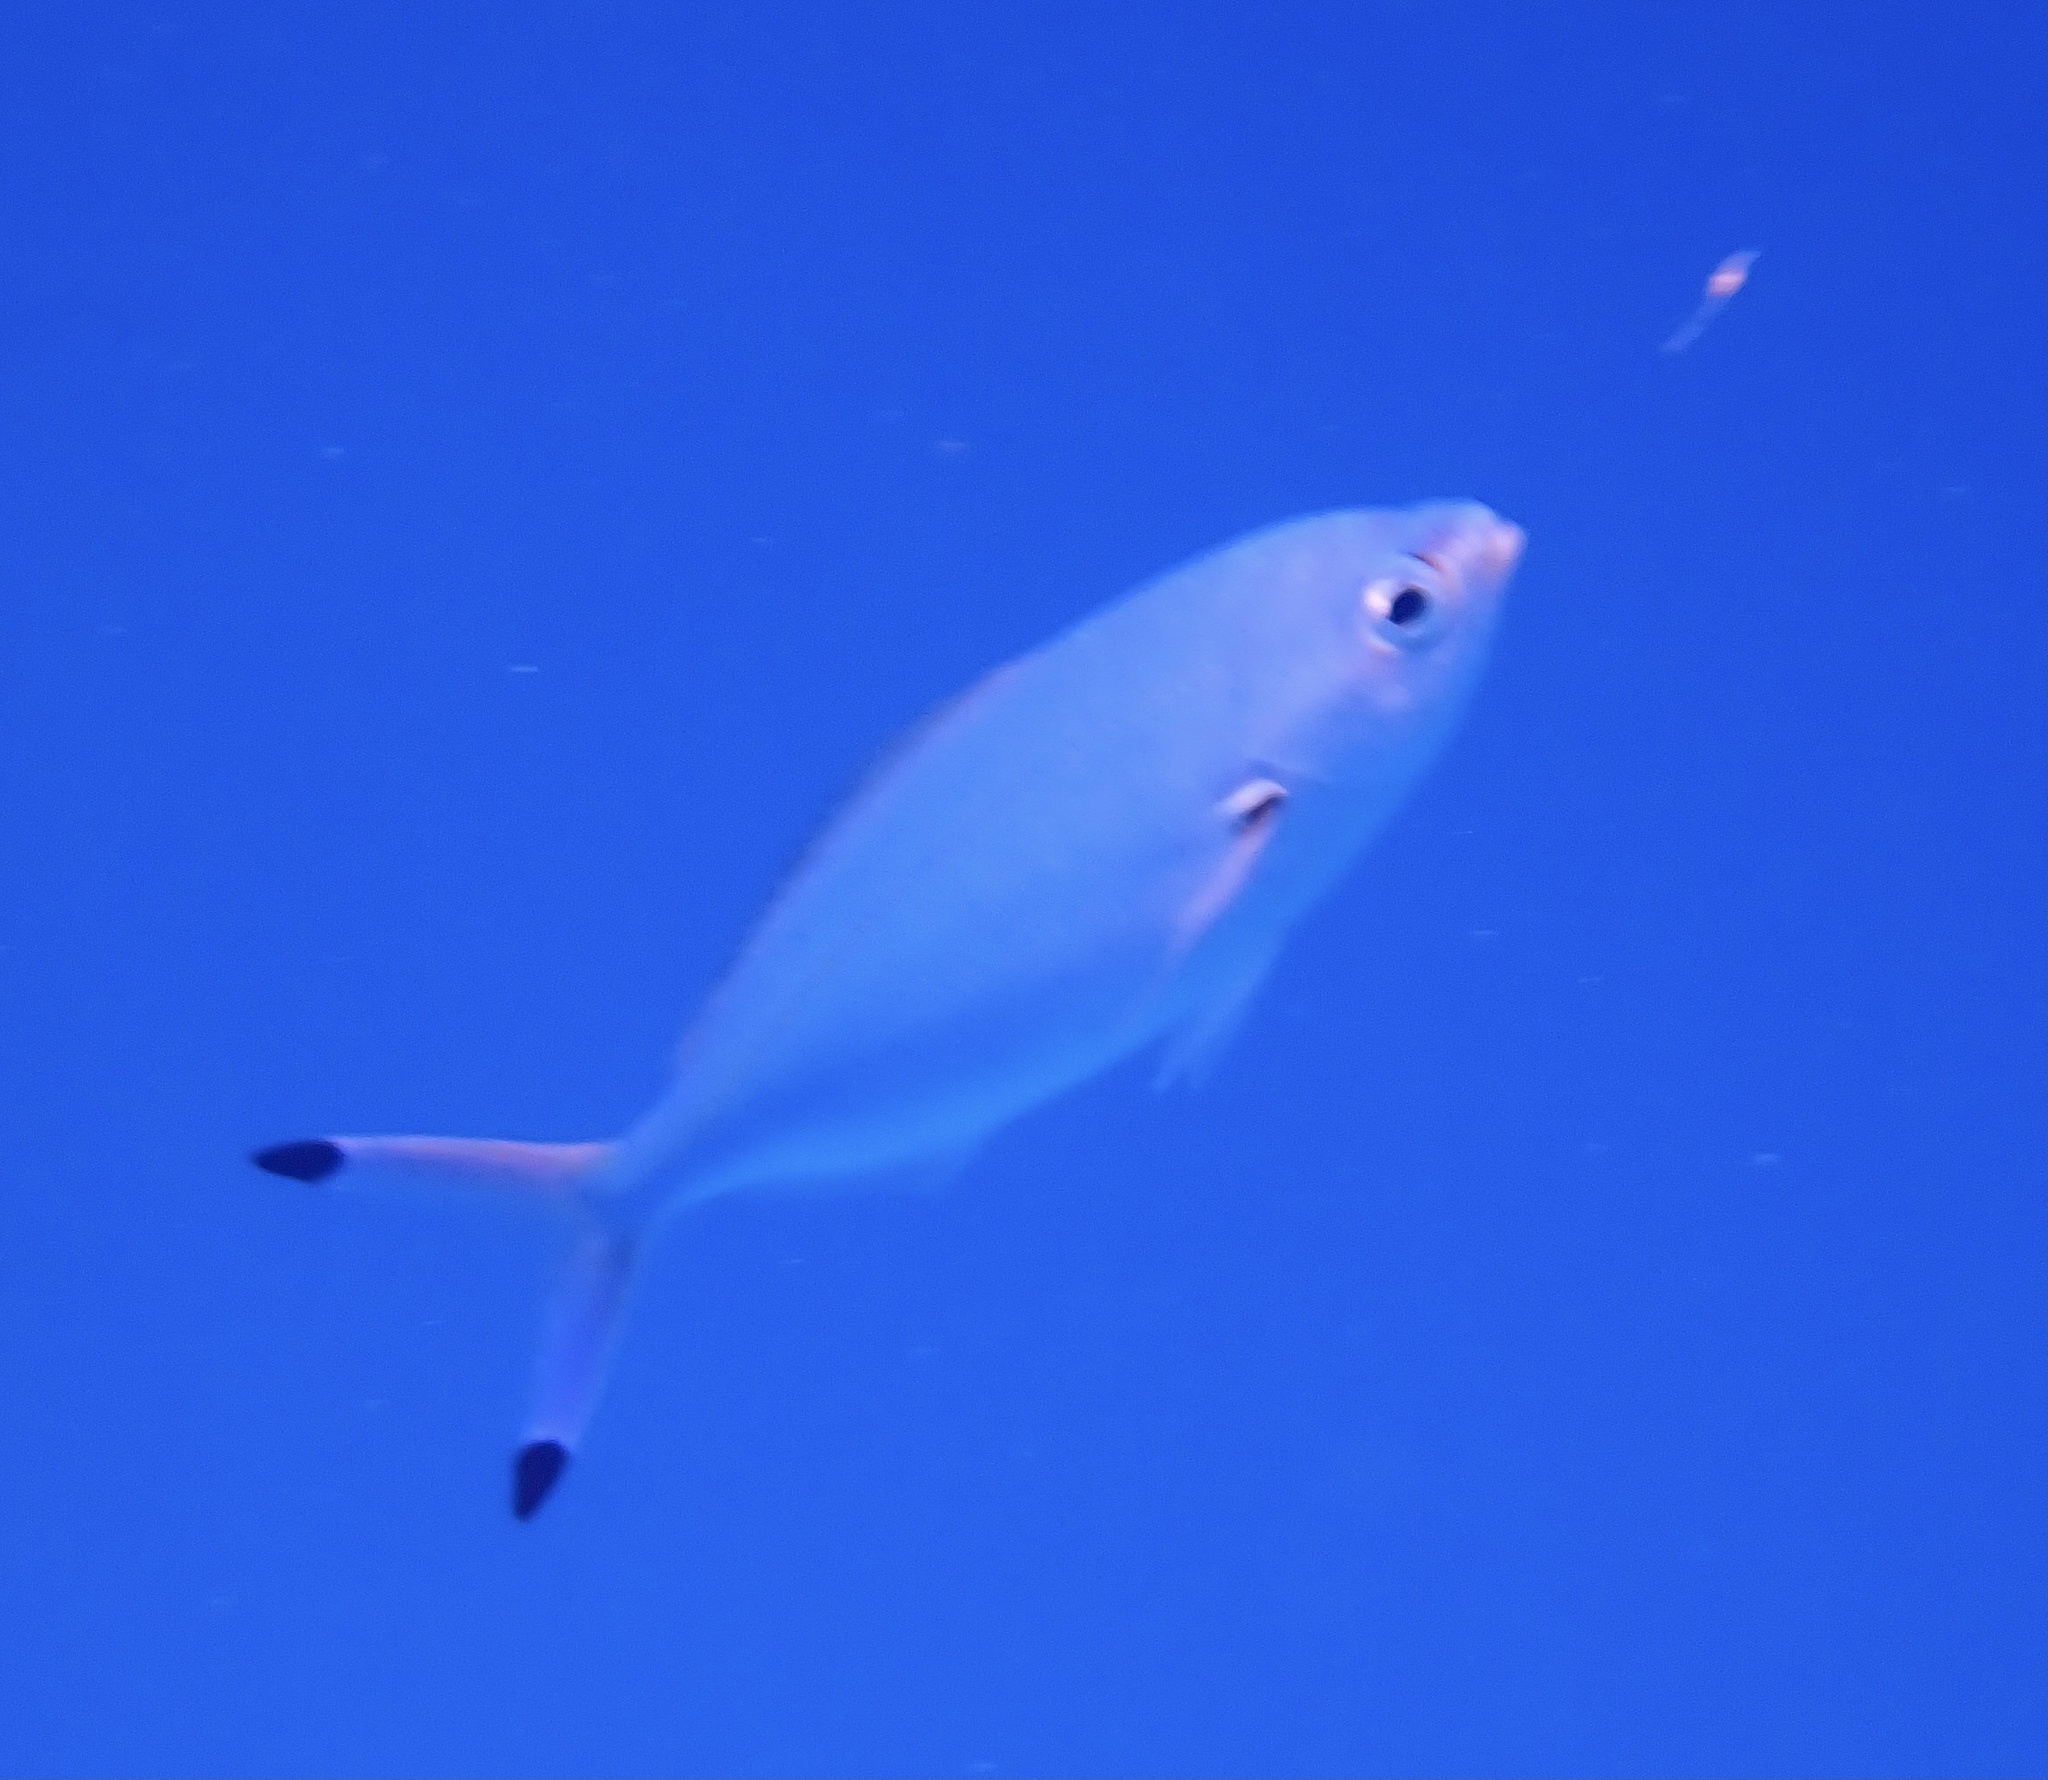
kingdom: Animalia
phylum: Chordata
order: Perciformes
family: Caesionidae
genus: Caesio
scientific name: Caesio lunaris
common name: Blue fusilier
